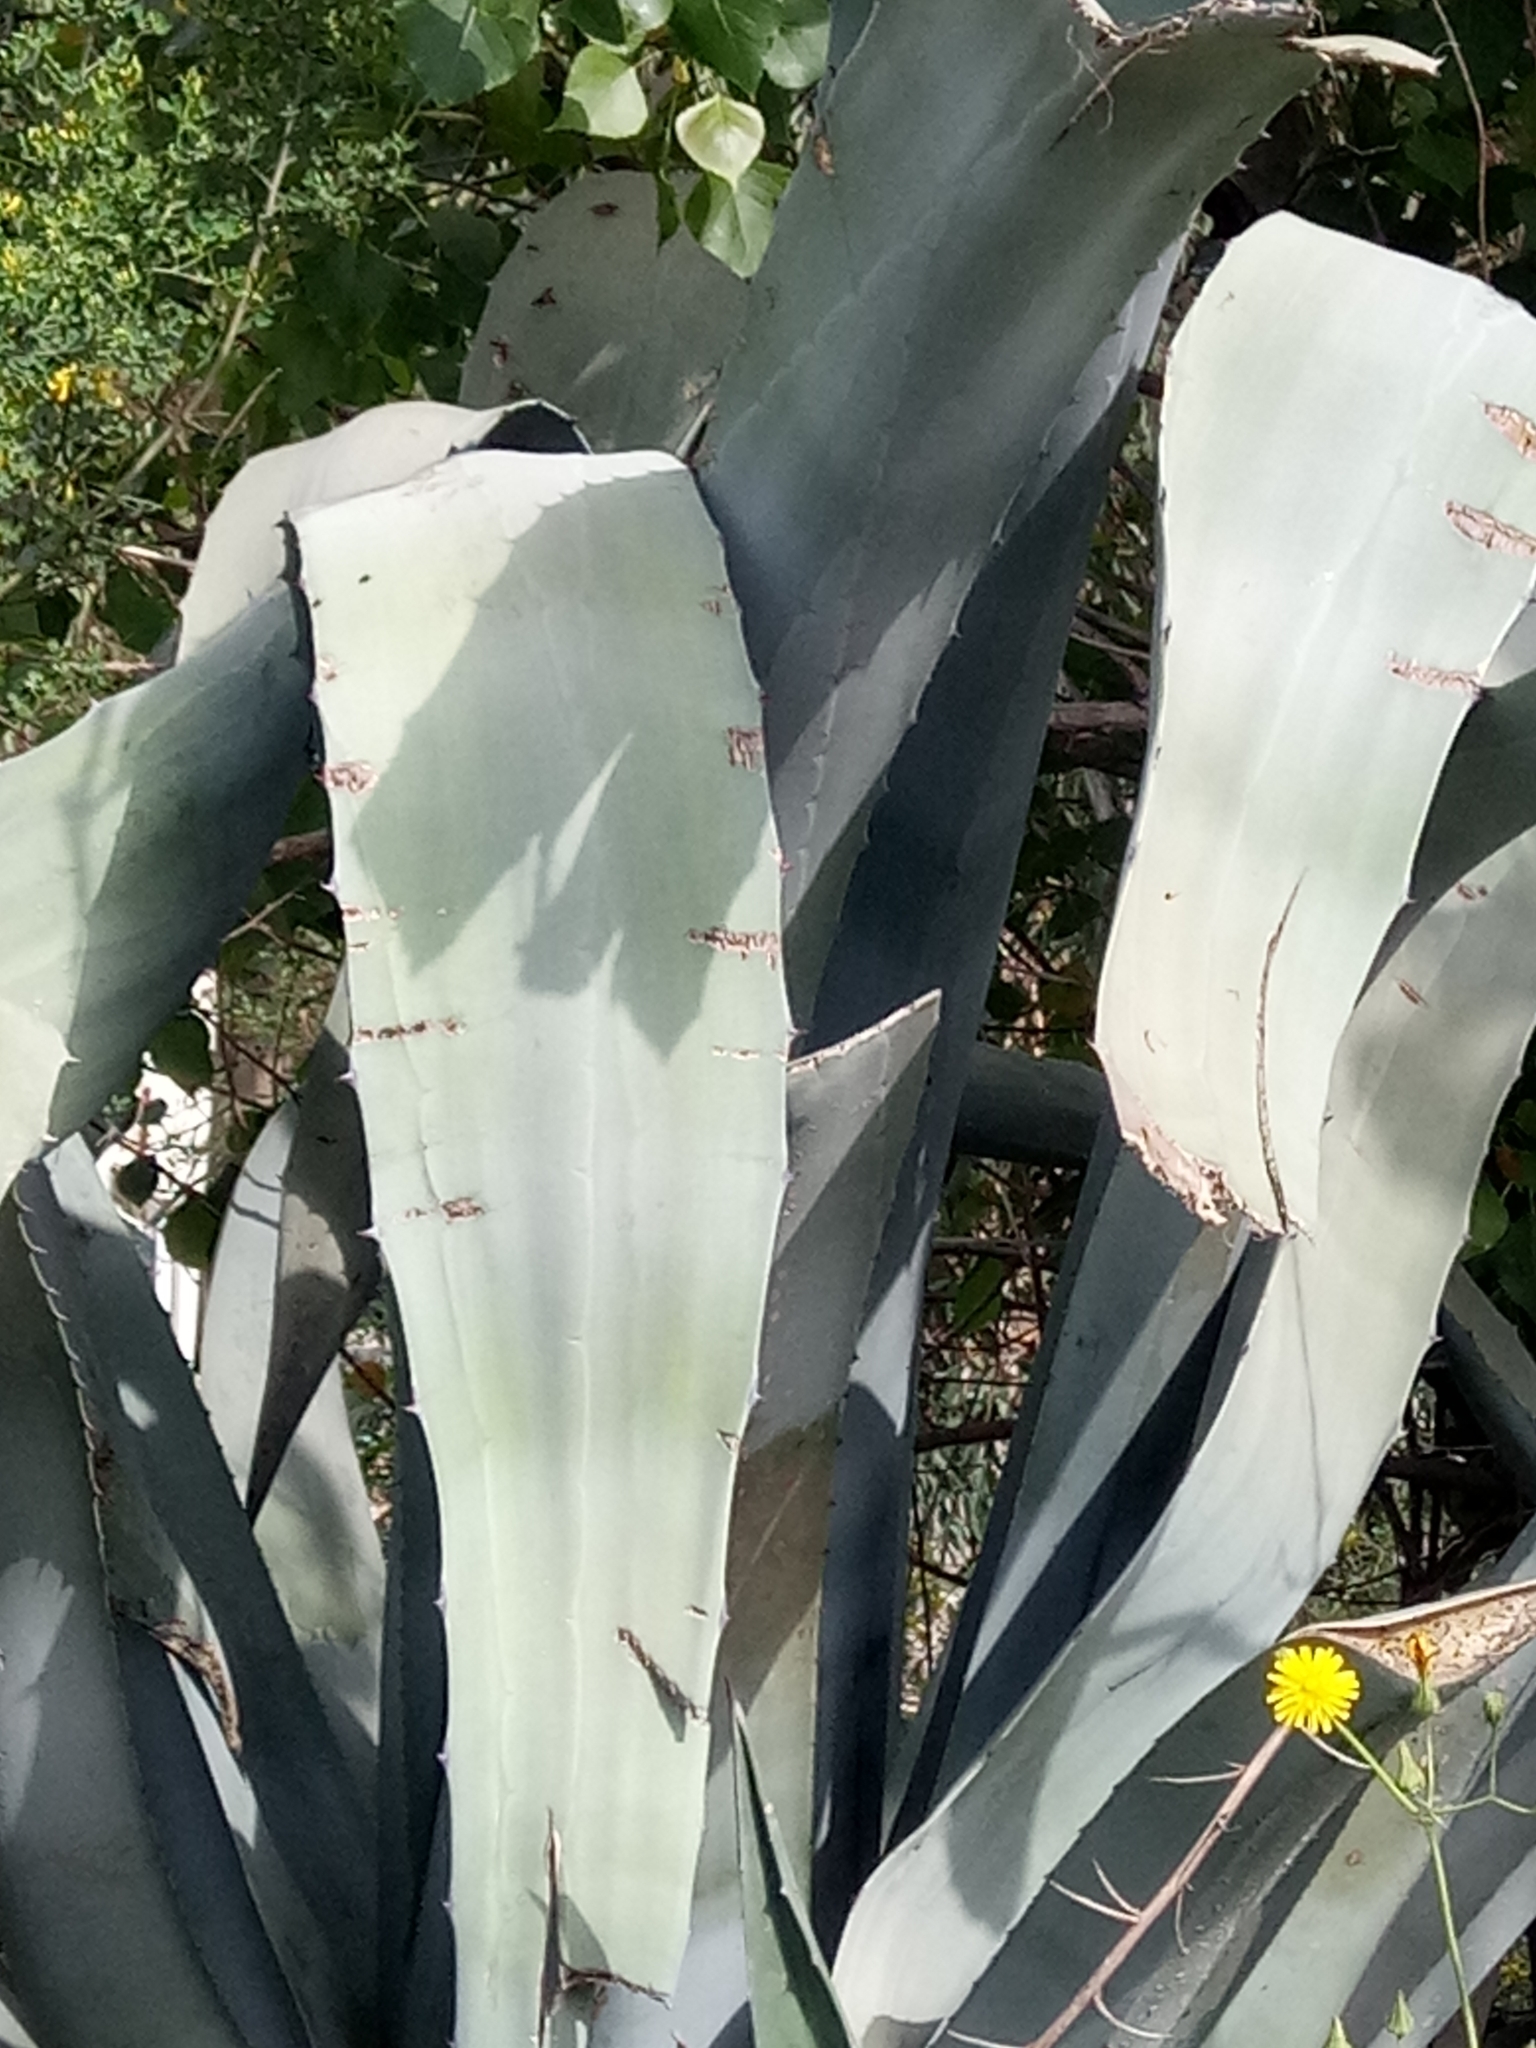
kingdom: Plantae
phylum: Tracheophyta
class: Liliopsida
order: Asparagales
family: Asparagaceae
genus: Agave
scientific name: Agave americana
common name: Centuryplant
